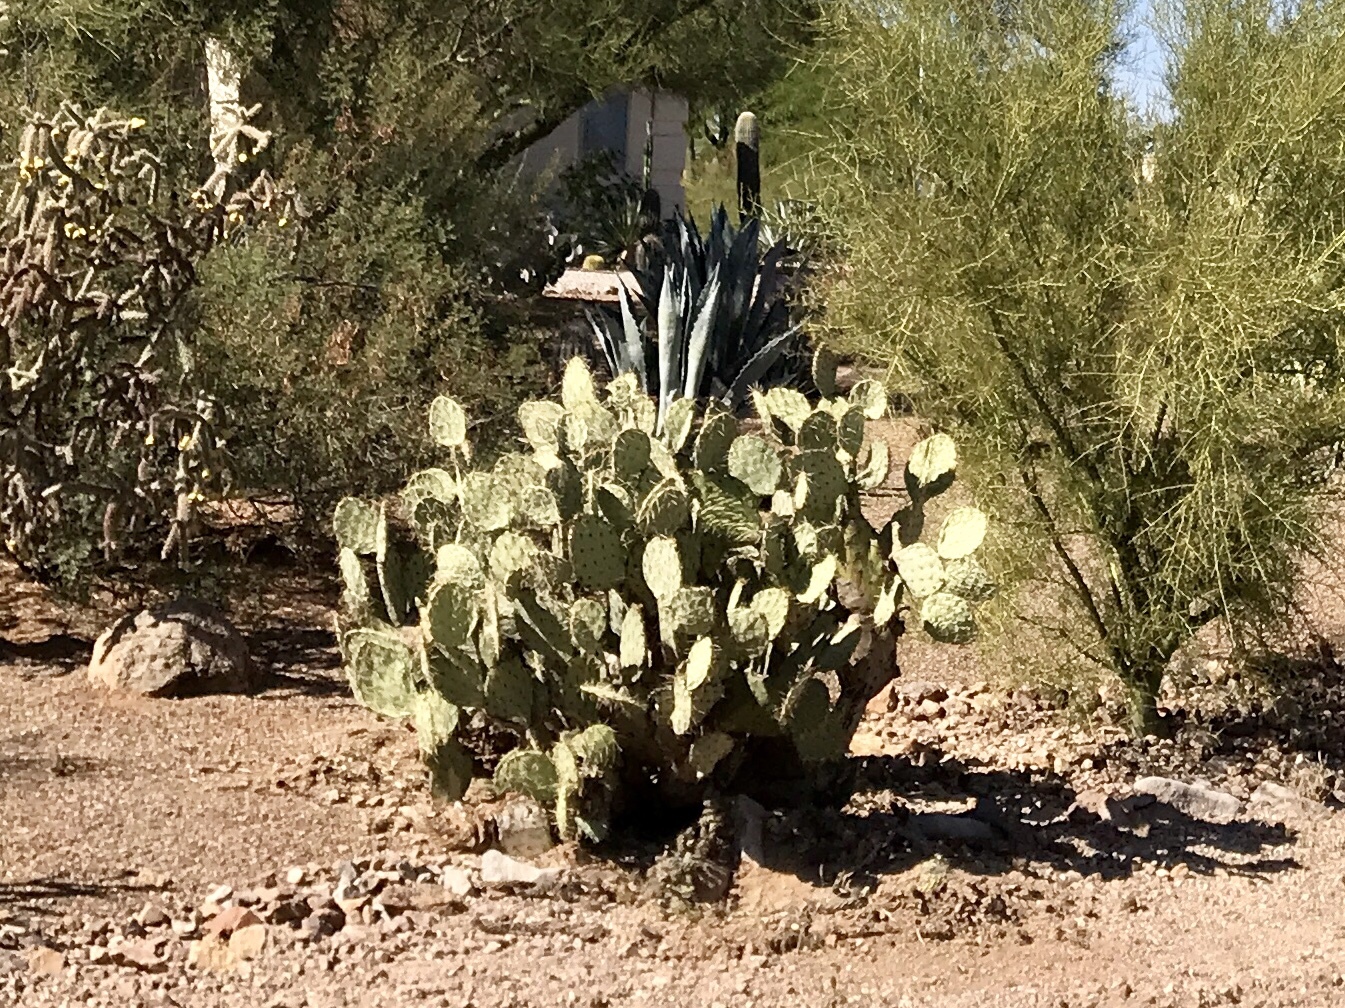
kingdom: Plantae
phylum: Tracheophyta
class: Magnoliopsida
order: Caryophyllales
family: Cactaceae
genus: Opuntia
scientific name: Opuntia engelmannii
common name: Cactus-apple
